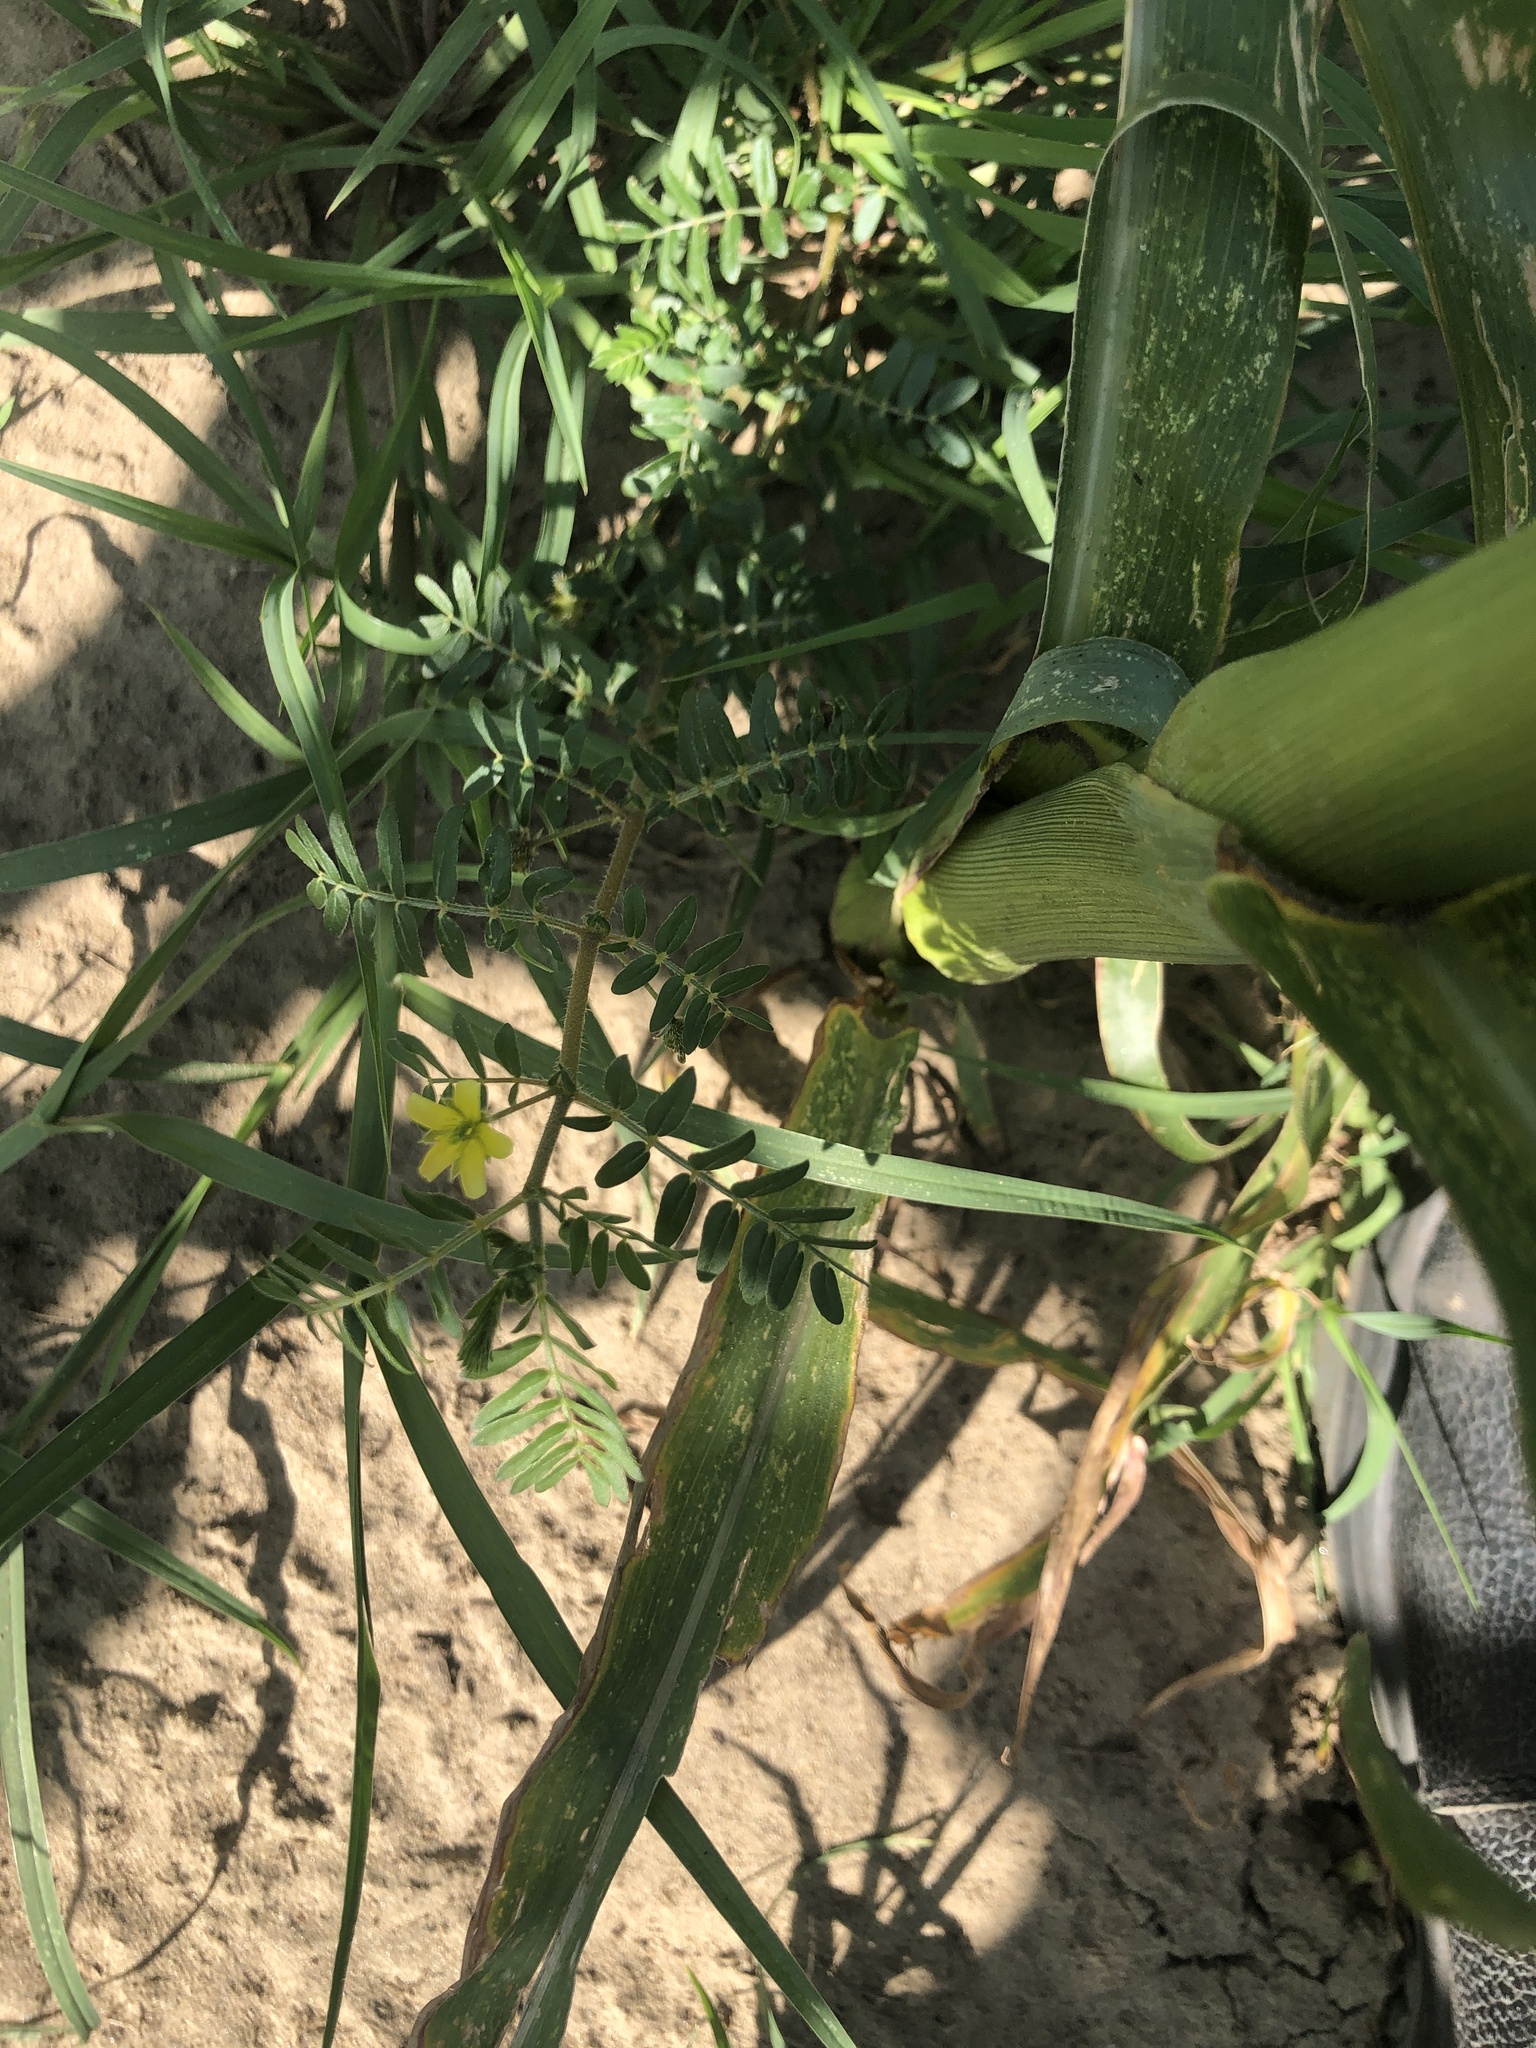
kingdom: Plantae
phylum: Tracheophyta
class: Magnoliopsida
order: Zygophyllales
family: Zygophyllaceae
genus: Tribulus
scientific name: Tribulus terrestris
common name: Puncturevine
